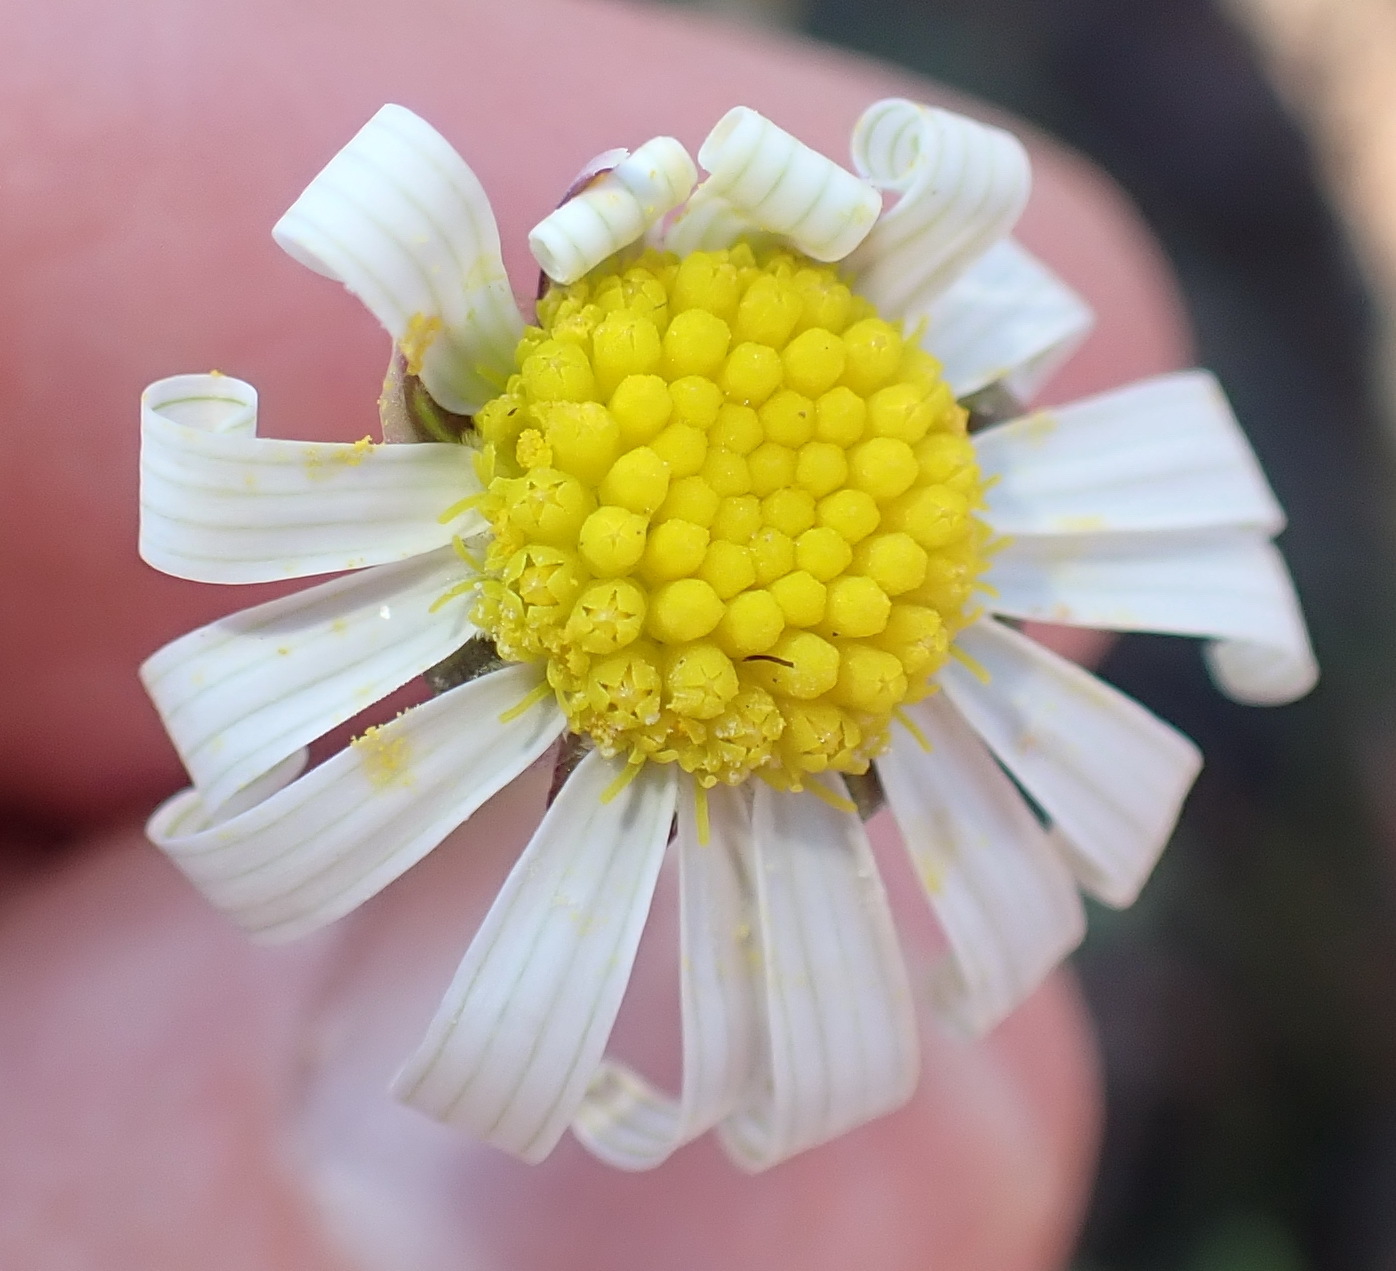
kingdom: Plantae
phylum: Tracheophyta
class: Magnoliopsida
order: Asterales
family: Asteraceae
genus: Crassothonna
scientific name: Crassothonna alba
